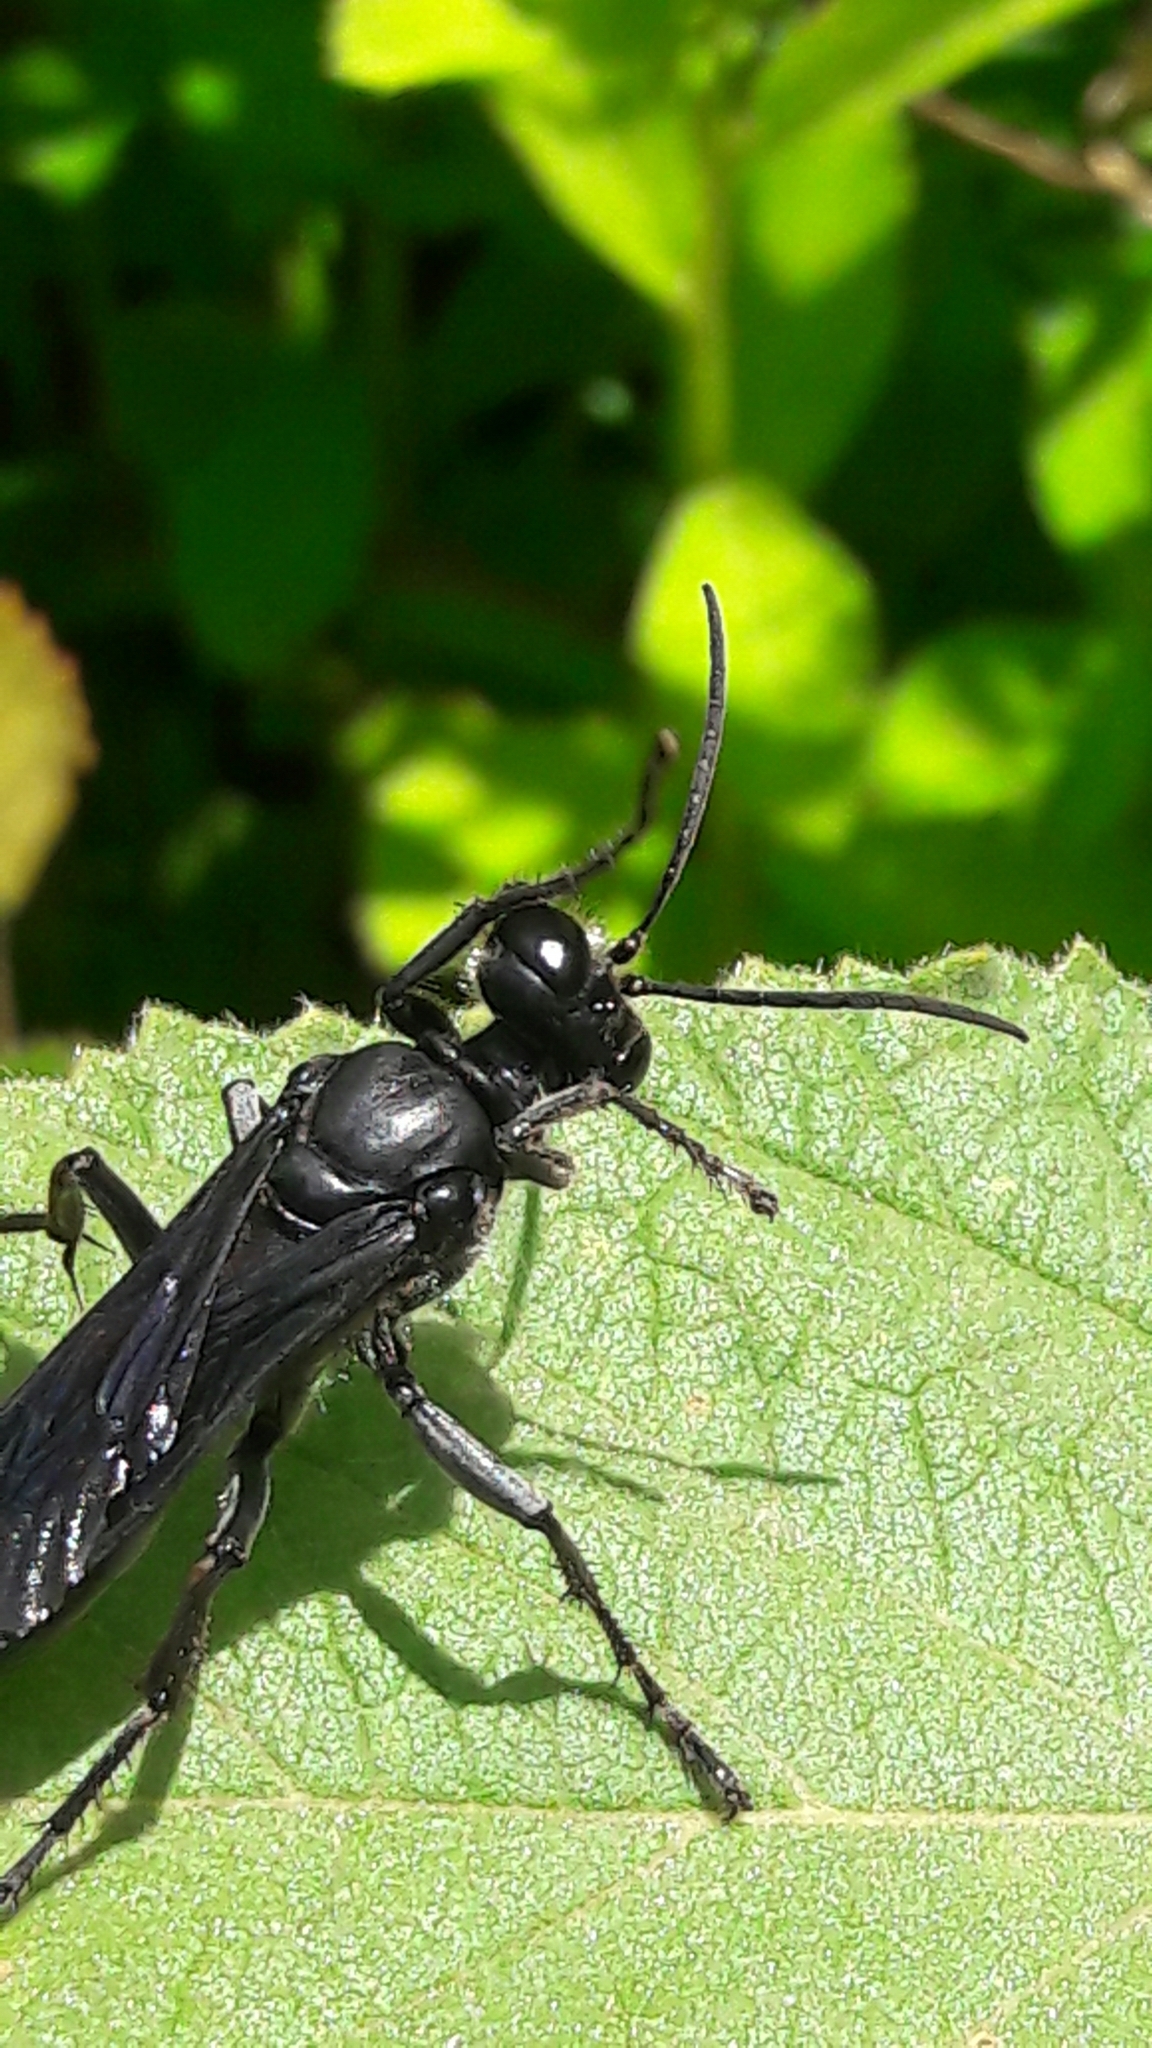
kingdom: Animalia
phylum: Arthropoda
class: Insecta
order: Hymenoptera
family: Sphecidae
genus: Sphex
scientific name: Sphex latro
